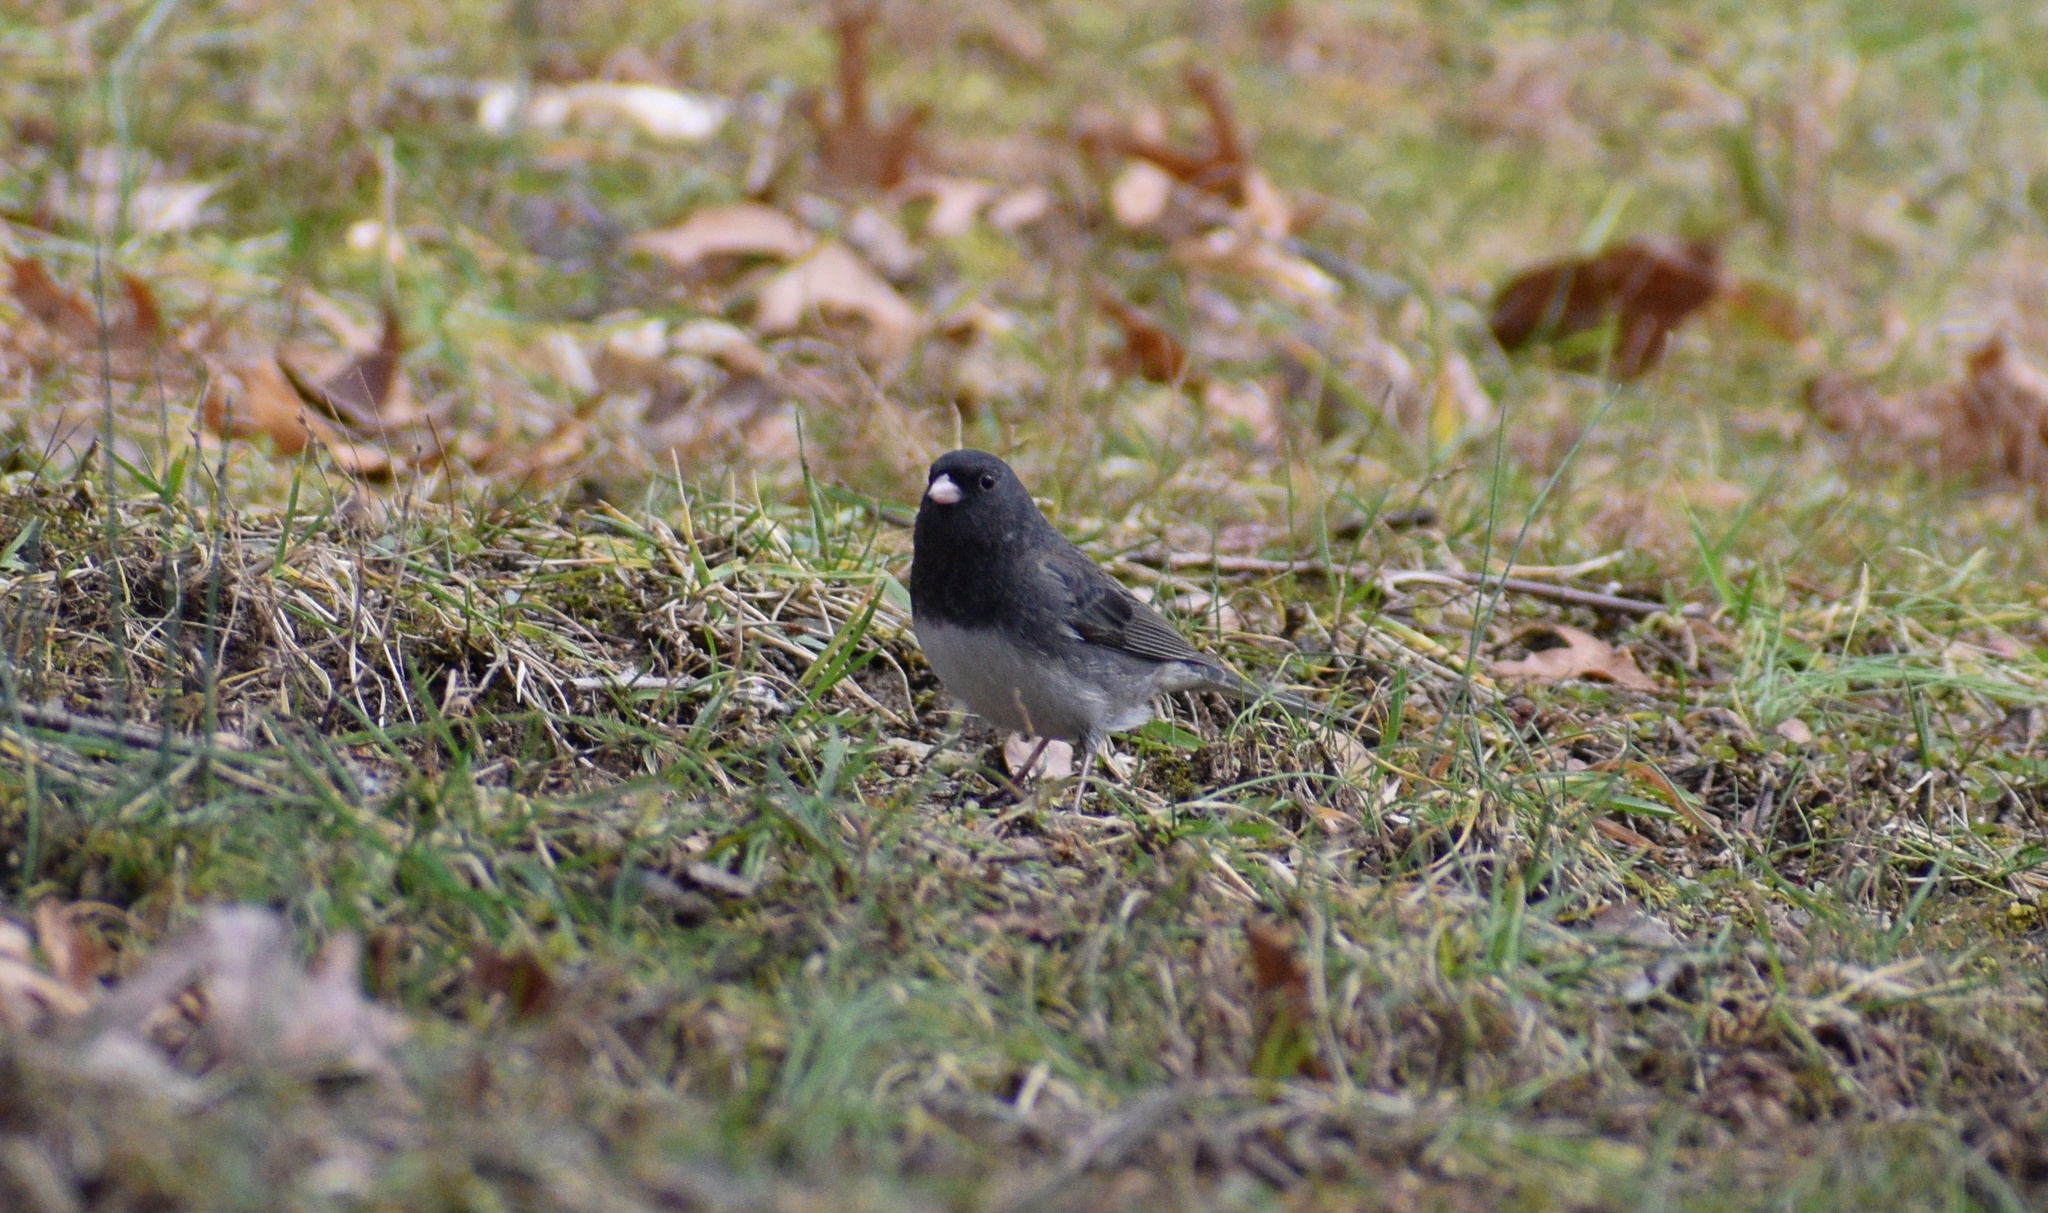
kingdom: Animalia
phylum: Chordata
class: Aves
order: Passeriformes
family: Passerellidae
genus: Junco
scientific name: Junco hyemalis
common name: Dark-eyed junco
